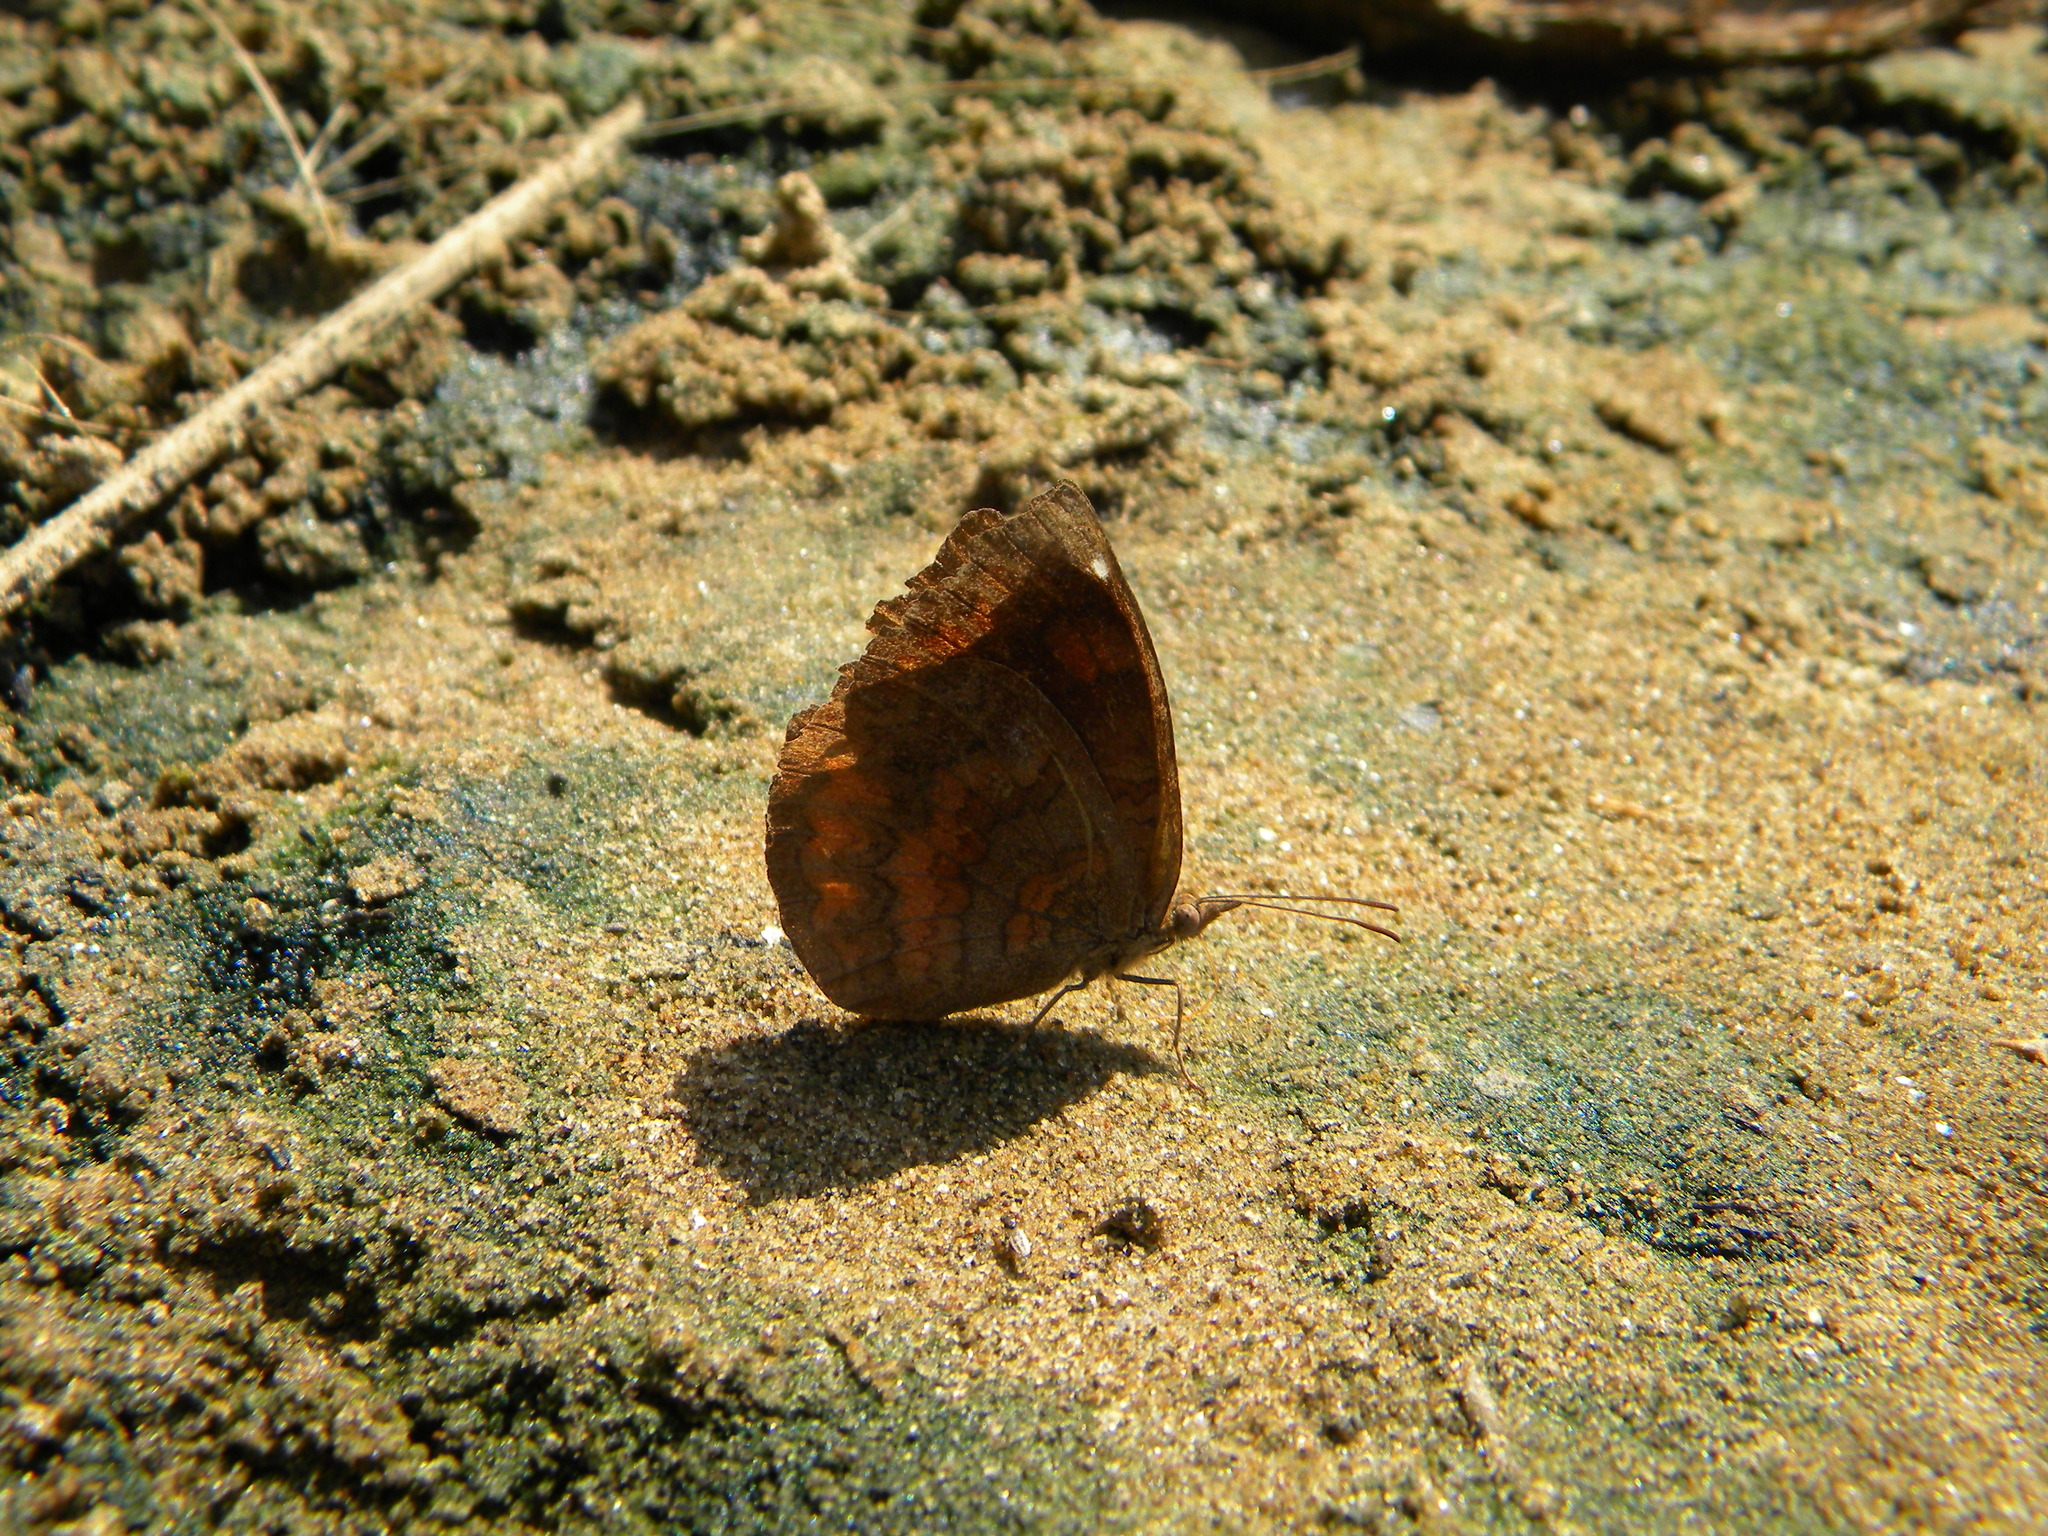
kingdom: Animalia
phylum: Arthropoda
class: Insecta
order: Lepidoptera
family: Nymphalidae
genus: Ariadne
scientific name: Ariadne merione
